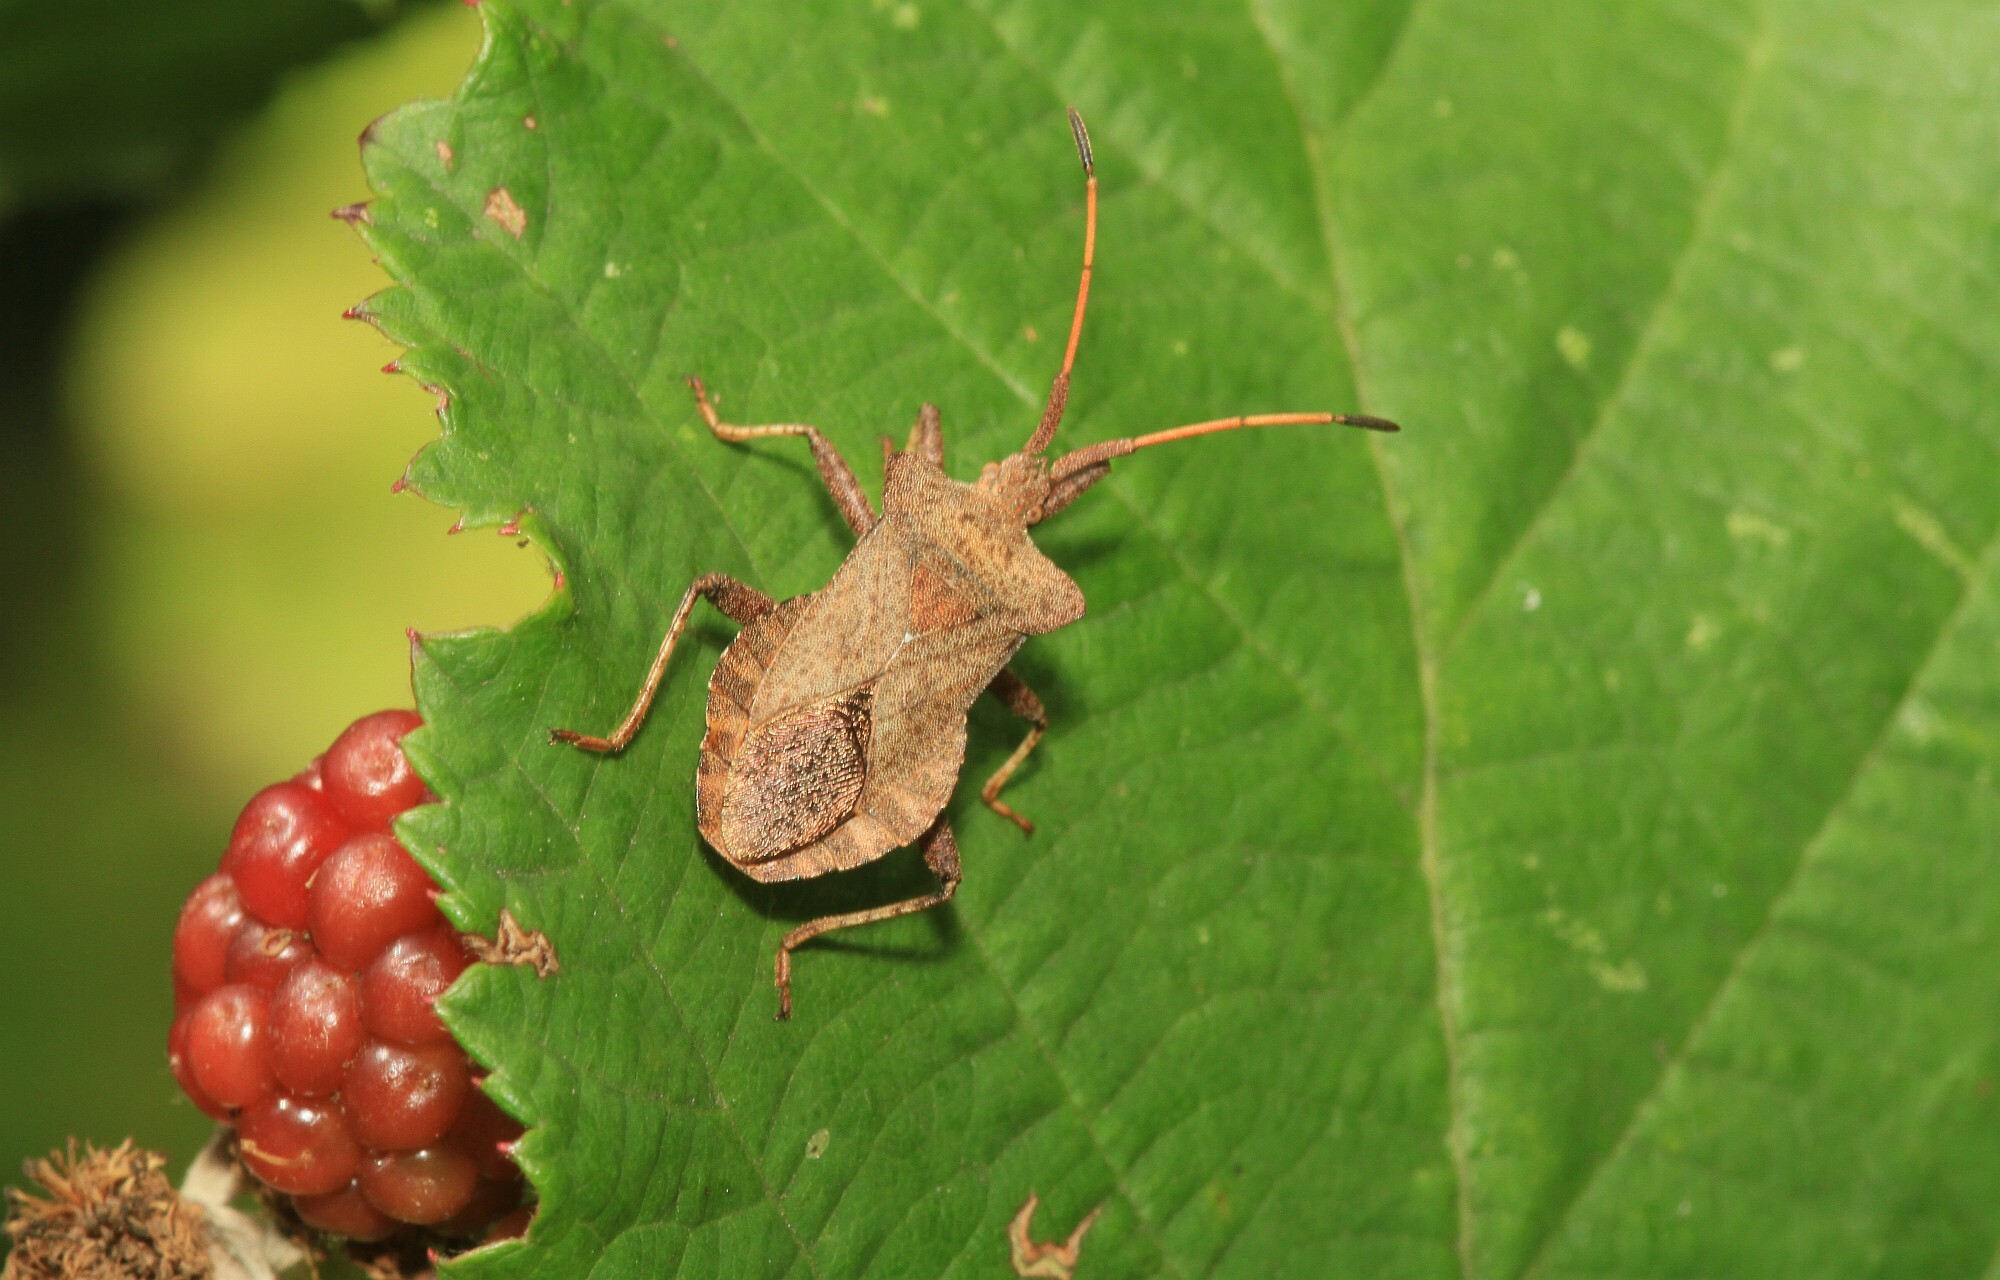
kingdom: Animalia
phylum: Arthropoda
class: Insecta
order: Hemiptera
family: Coreidae
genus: Coreus
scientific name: Coreus marginatus
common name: Dock bug
